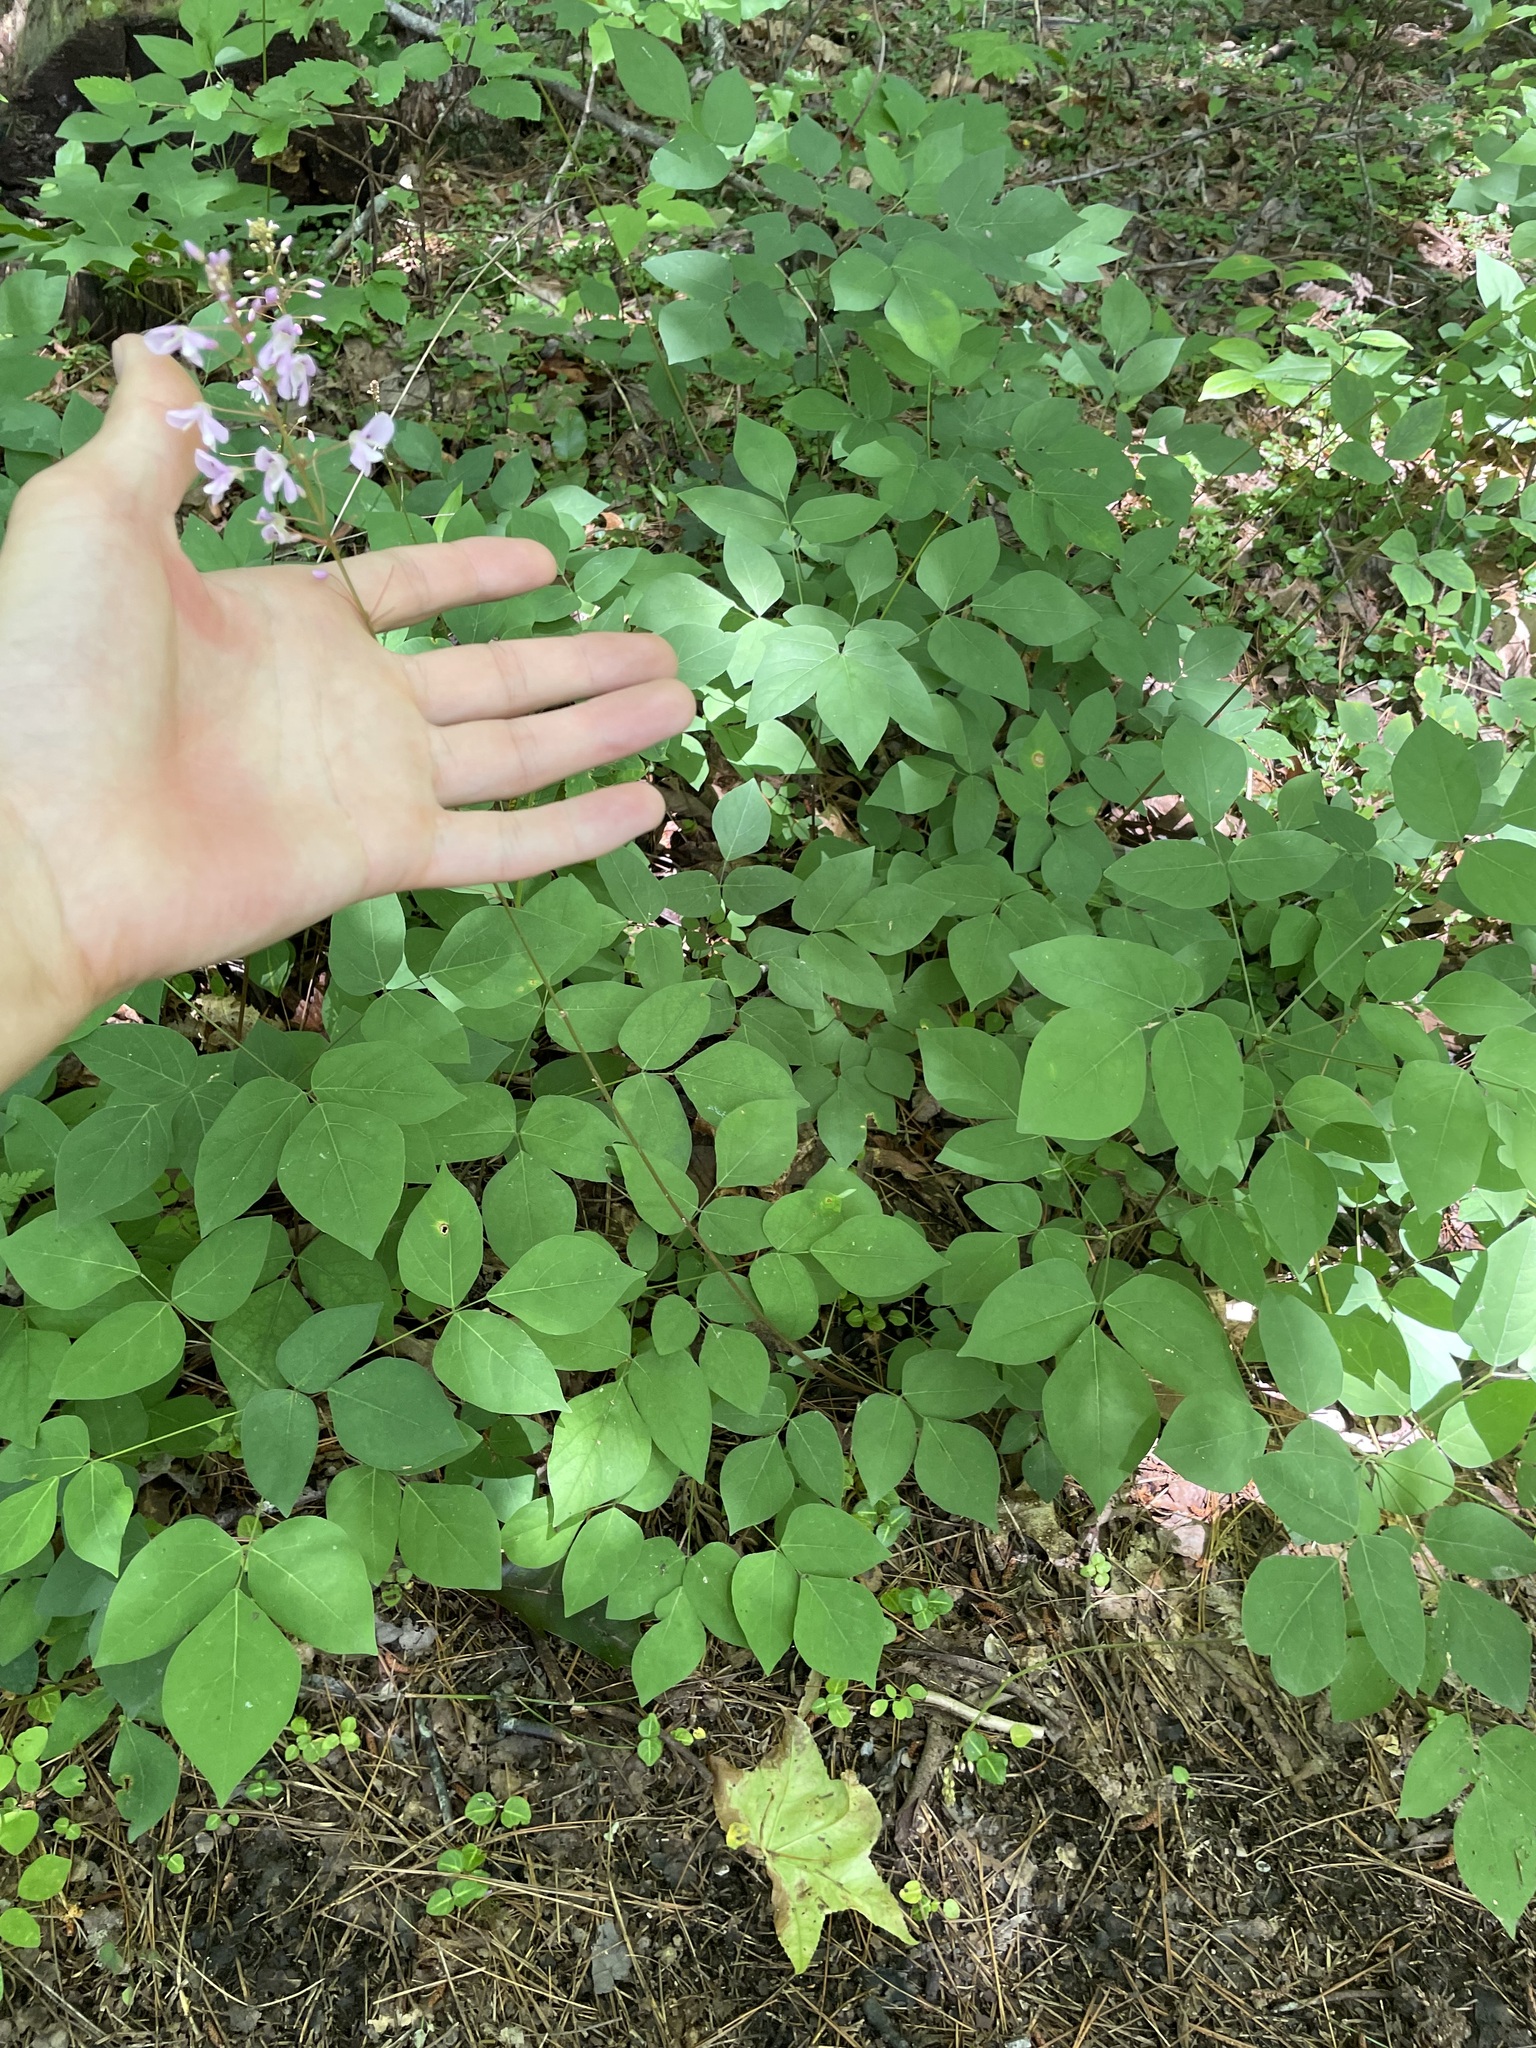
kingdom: Plantae
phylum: Tracheophyta
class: Magnoliopsida
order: Fabales
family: Fabaceae
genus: Hylodesmum
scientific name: Hylodesmum nudiflorum
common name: Bare-stemmed tick-trefoil
